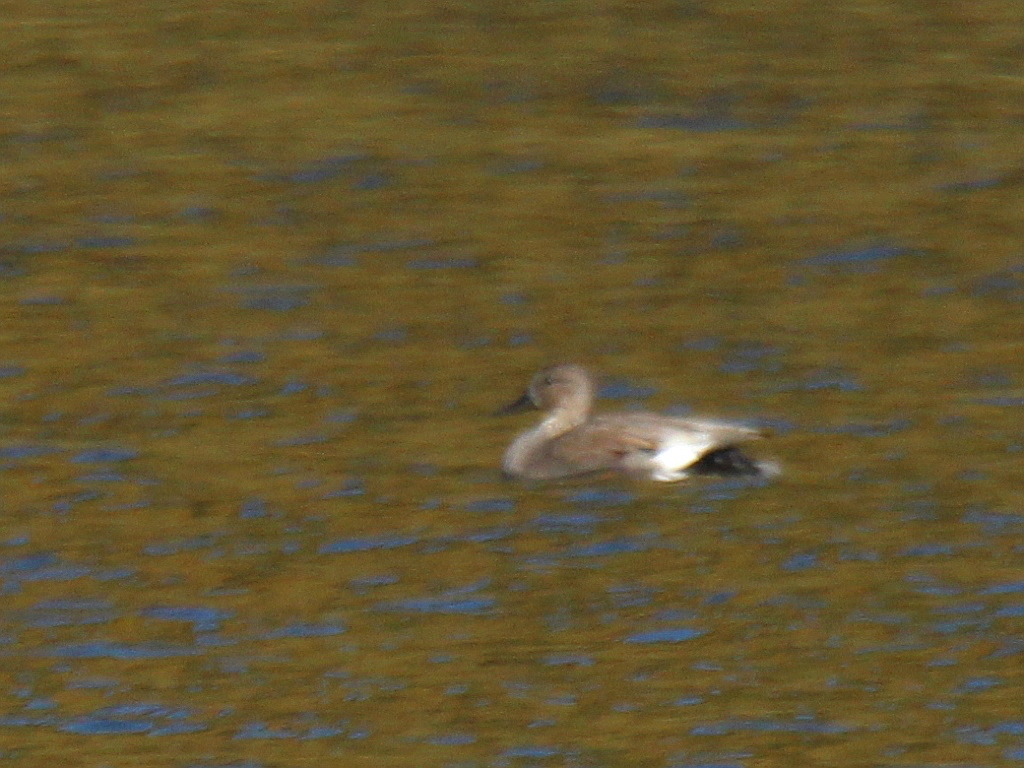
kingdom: Animalia
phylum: Chordata
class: Aves
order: Anseriformes
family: Anatidae
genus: Mareca
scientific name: Mareca strepera
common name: Gadwall
